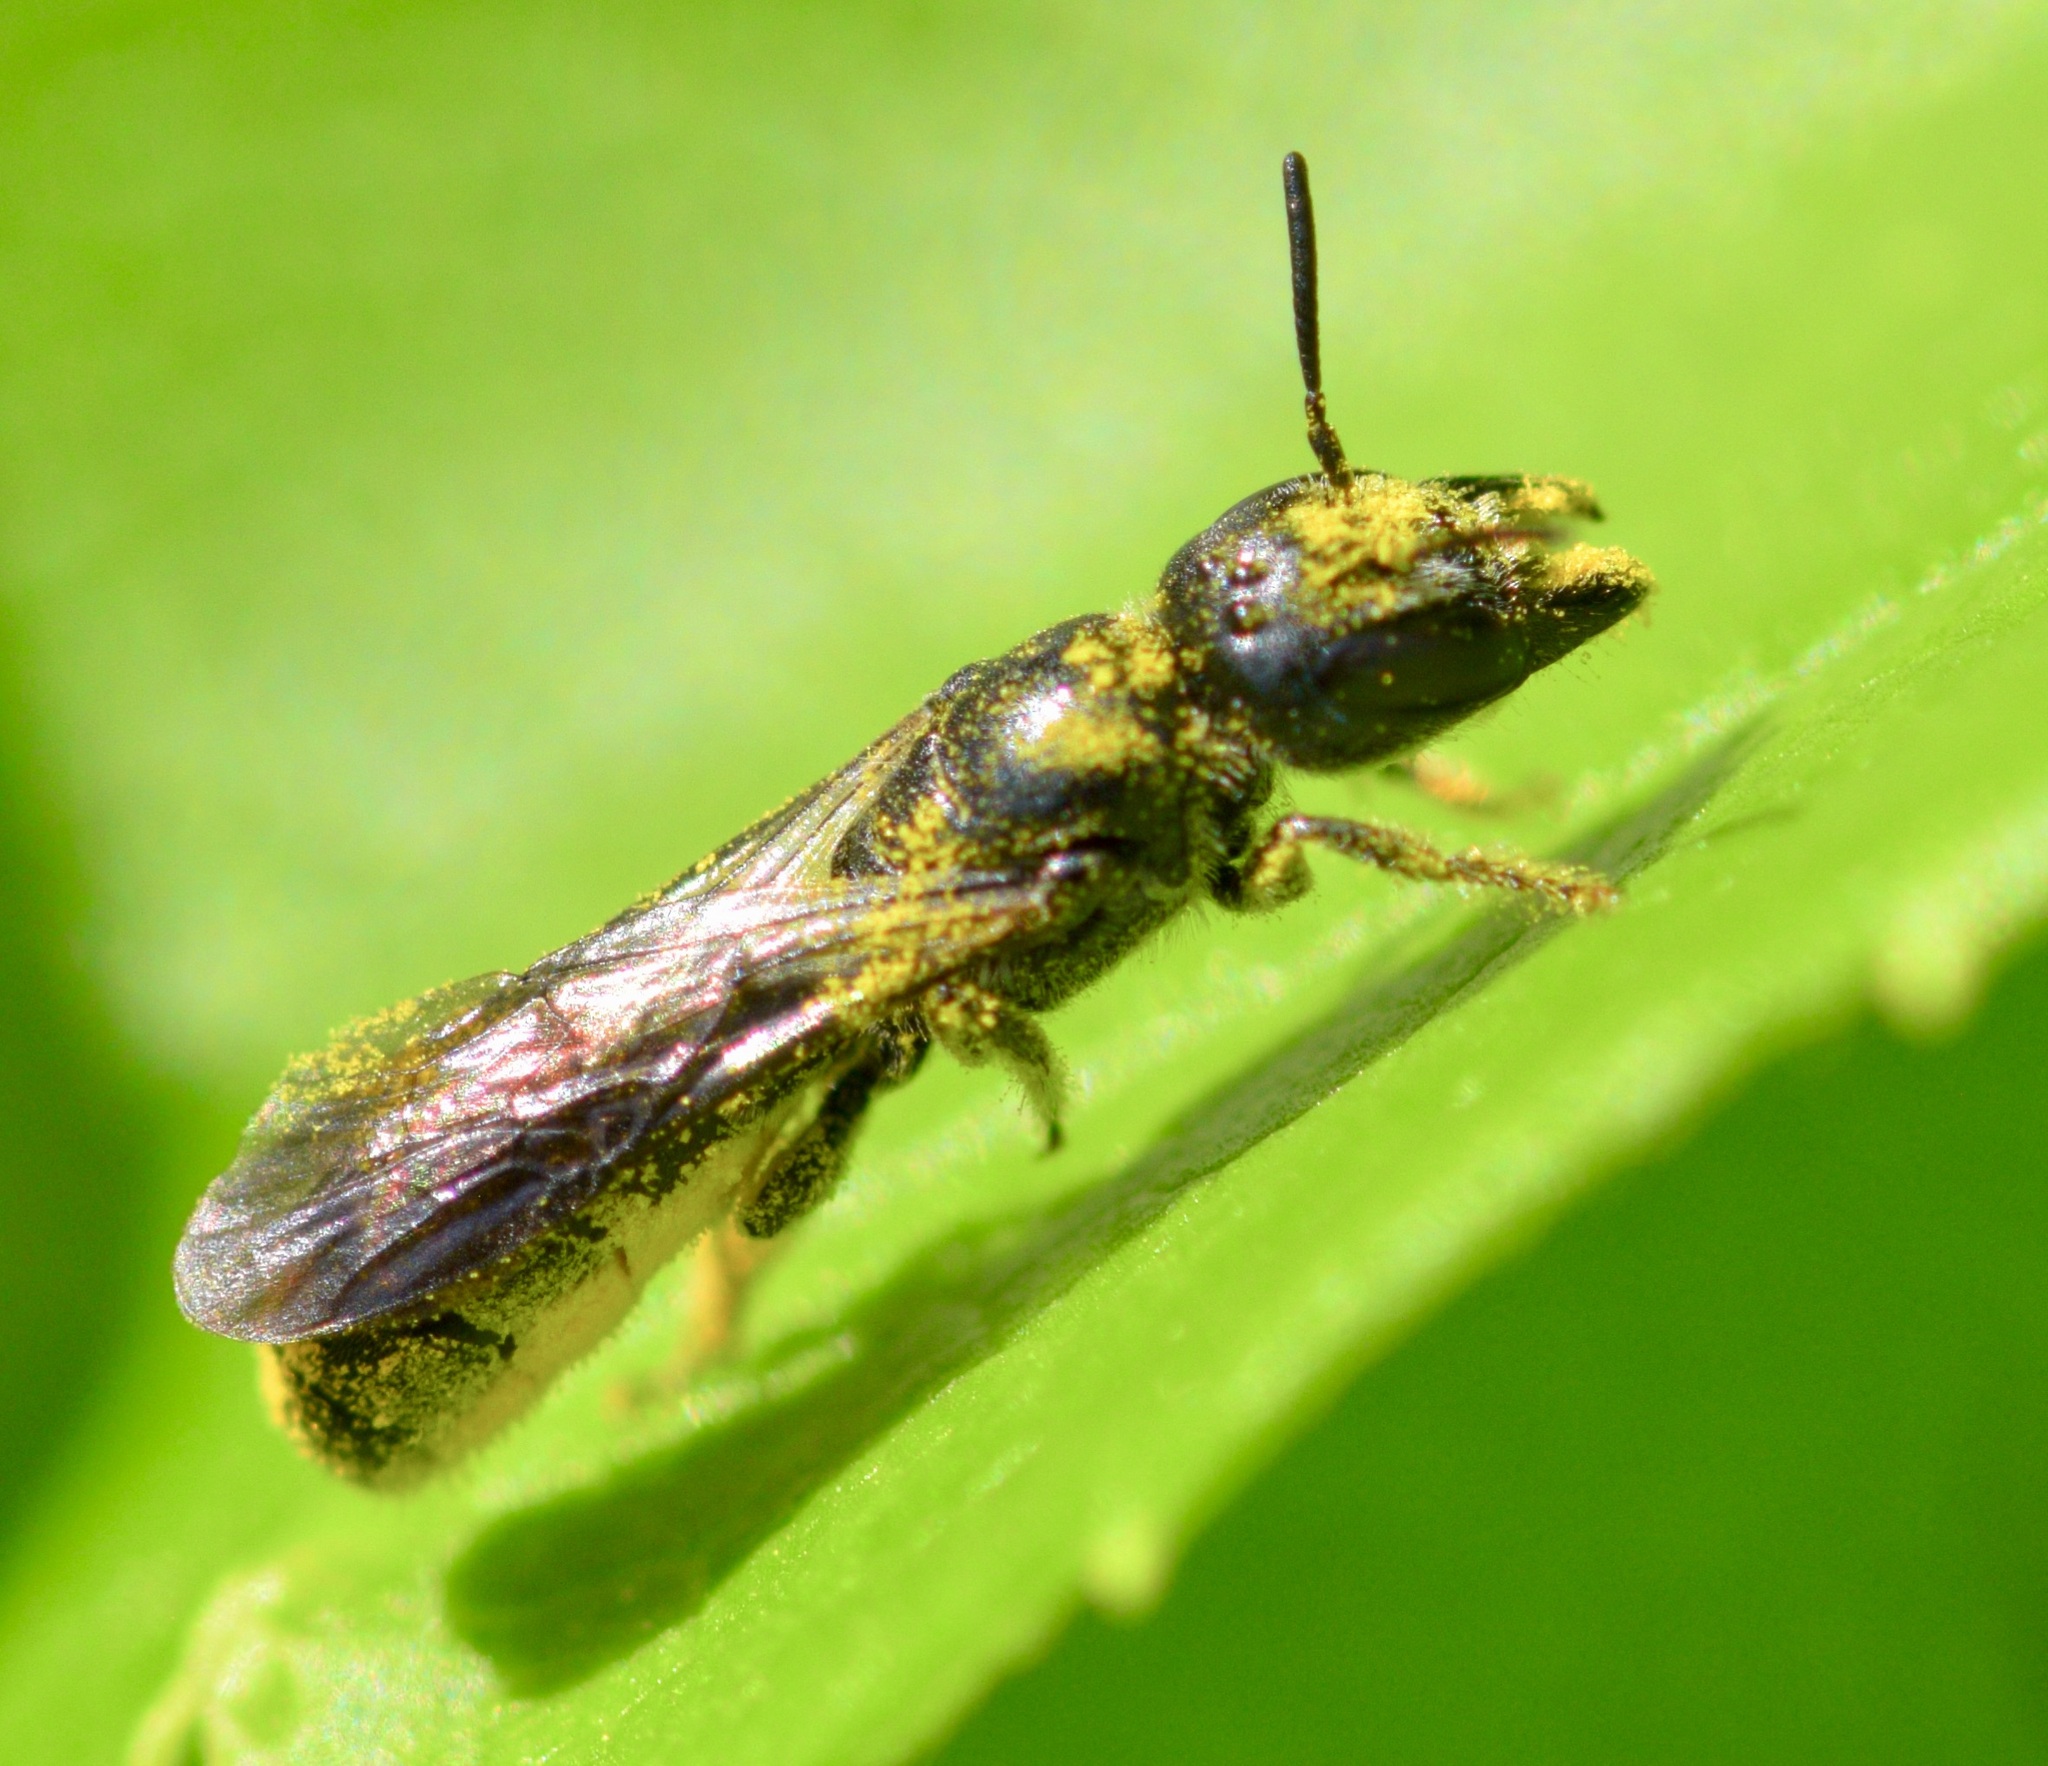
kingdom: Animalia
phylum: Arthropoda
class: Insecta
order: Hymenoptera
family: Megachilidae
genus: Chelostoma
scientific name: Chelostoma philadelphi
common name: Mock-orange scissor bee
